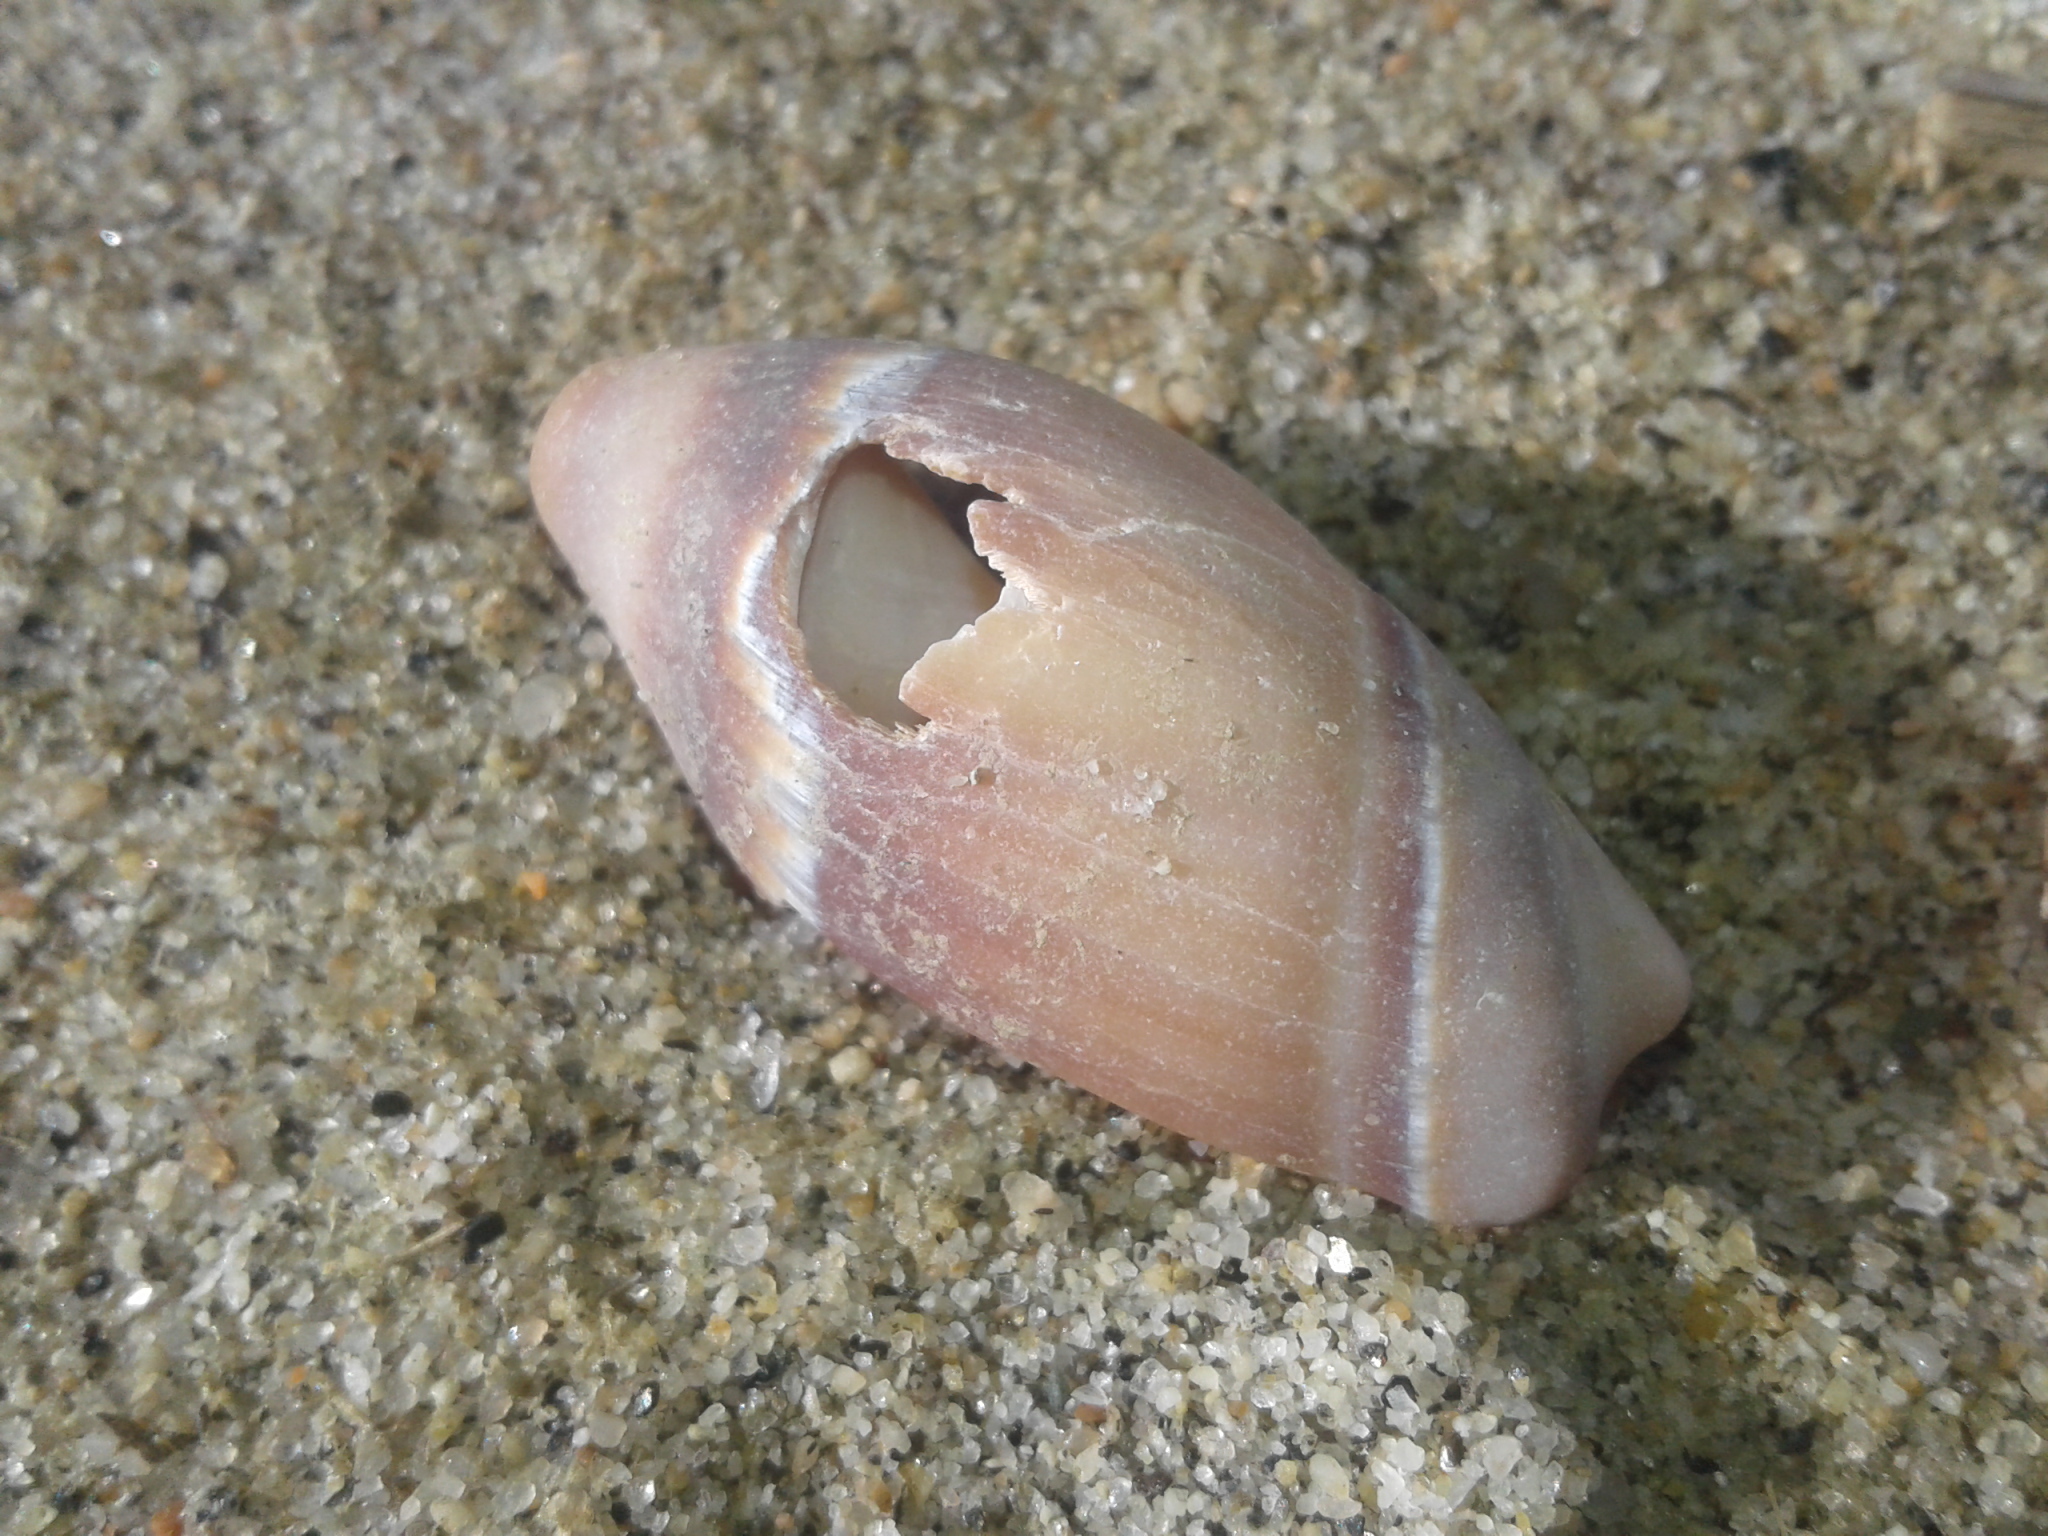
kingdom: Animalia
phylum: Mollusca
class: Gastropoda
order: Neogastropoda
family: Ancillariidae
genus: Amalda
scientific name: Amalda australis
